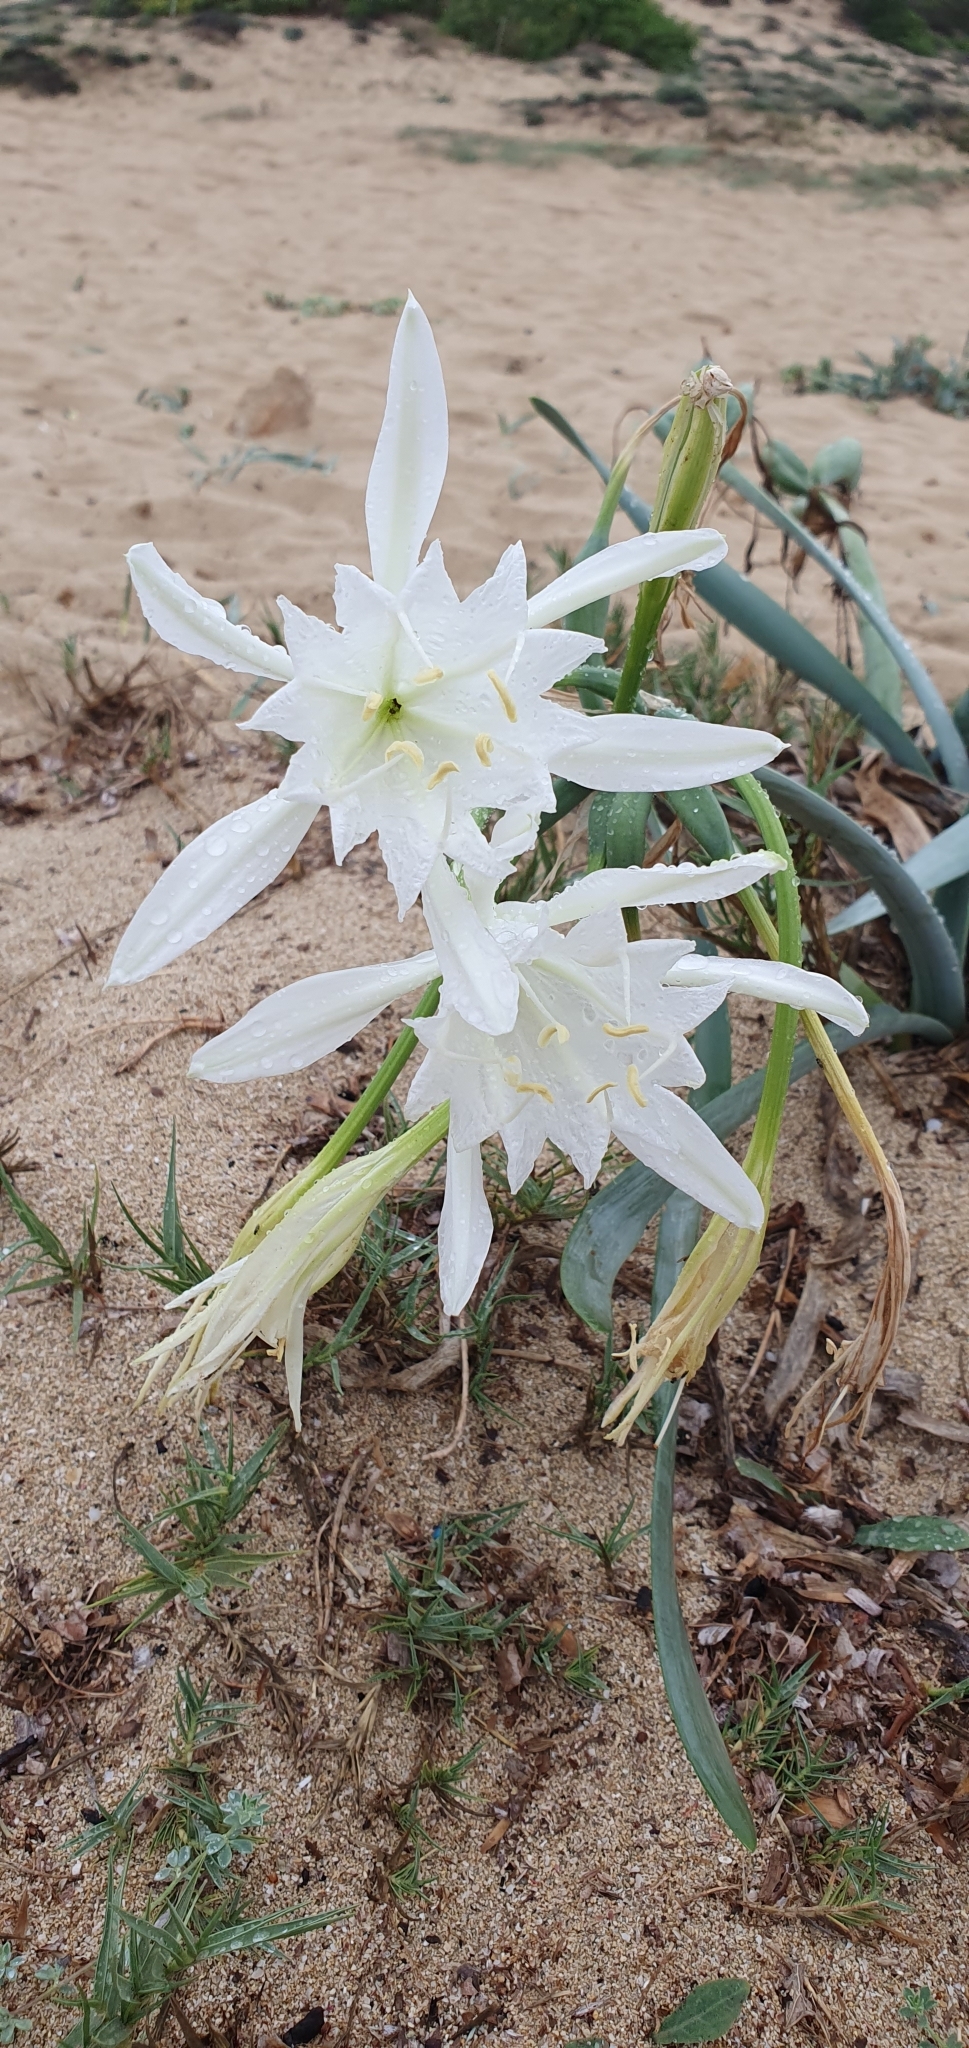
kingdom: Plantae
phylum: Tracheophyta
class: Liliopsida
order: Asparagales
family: Amaryllidaceae
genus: Pancratium
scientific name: Pancratium maritimum
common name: Sea-daffodil
